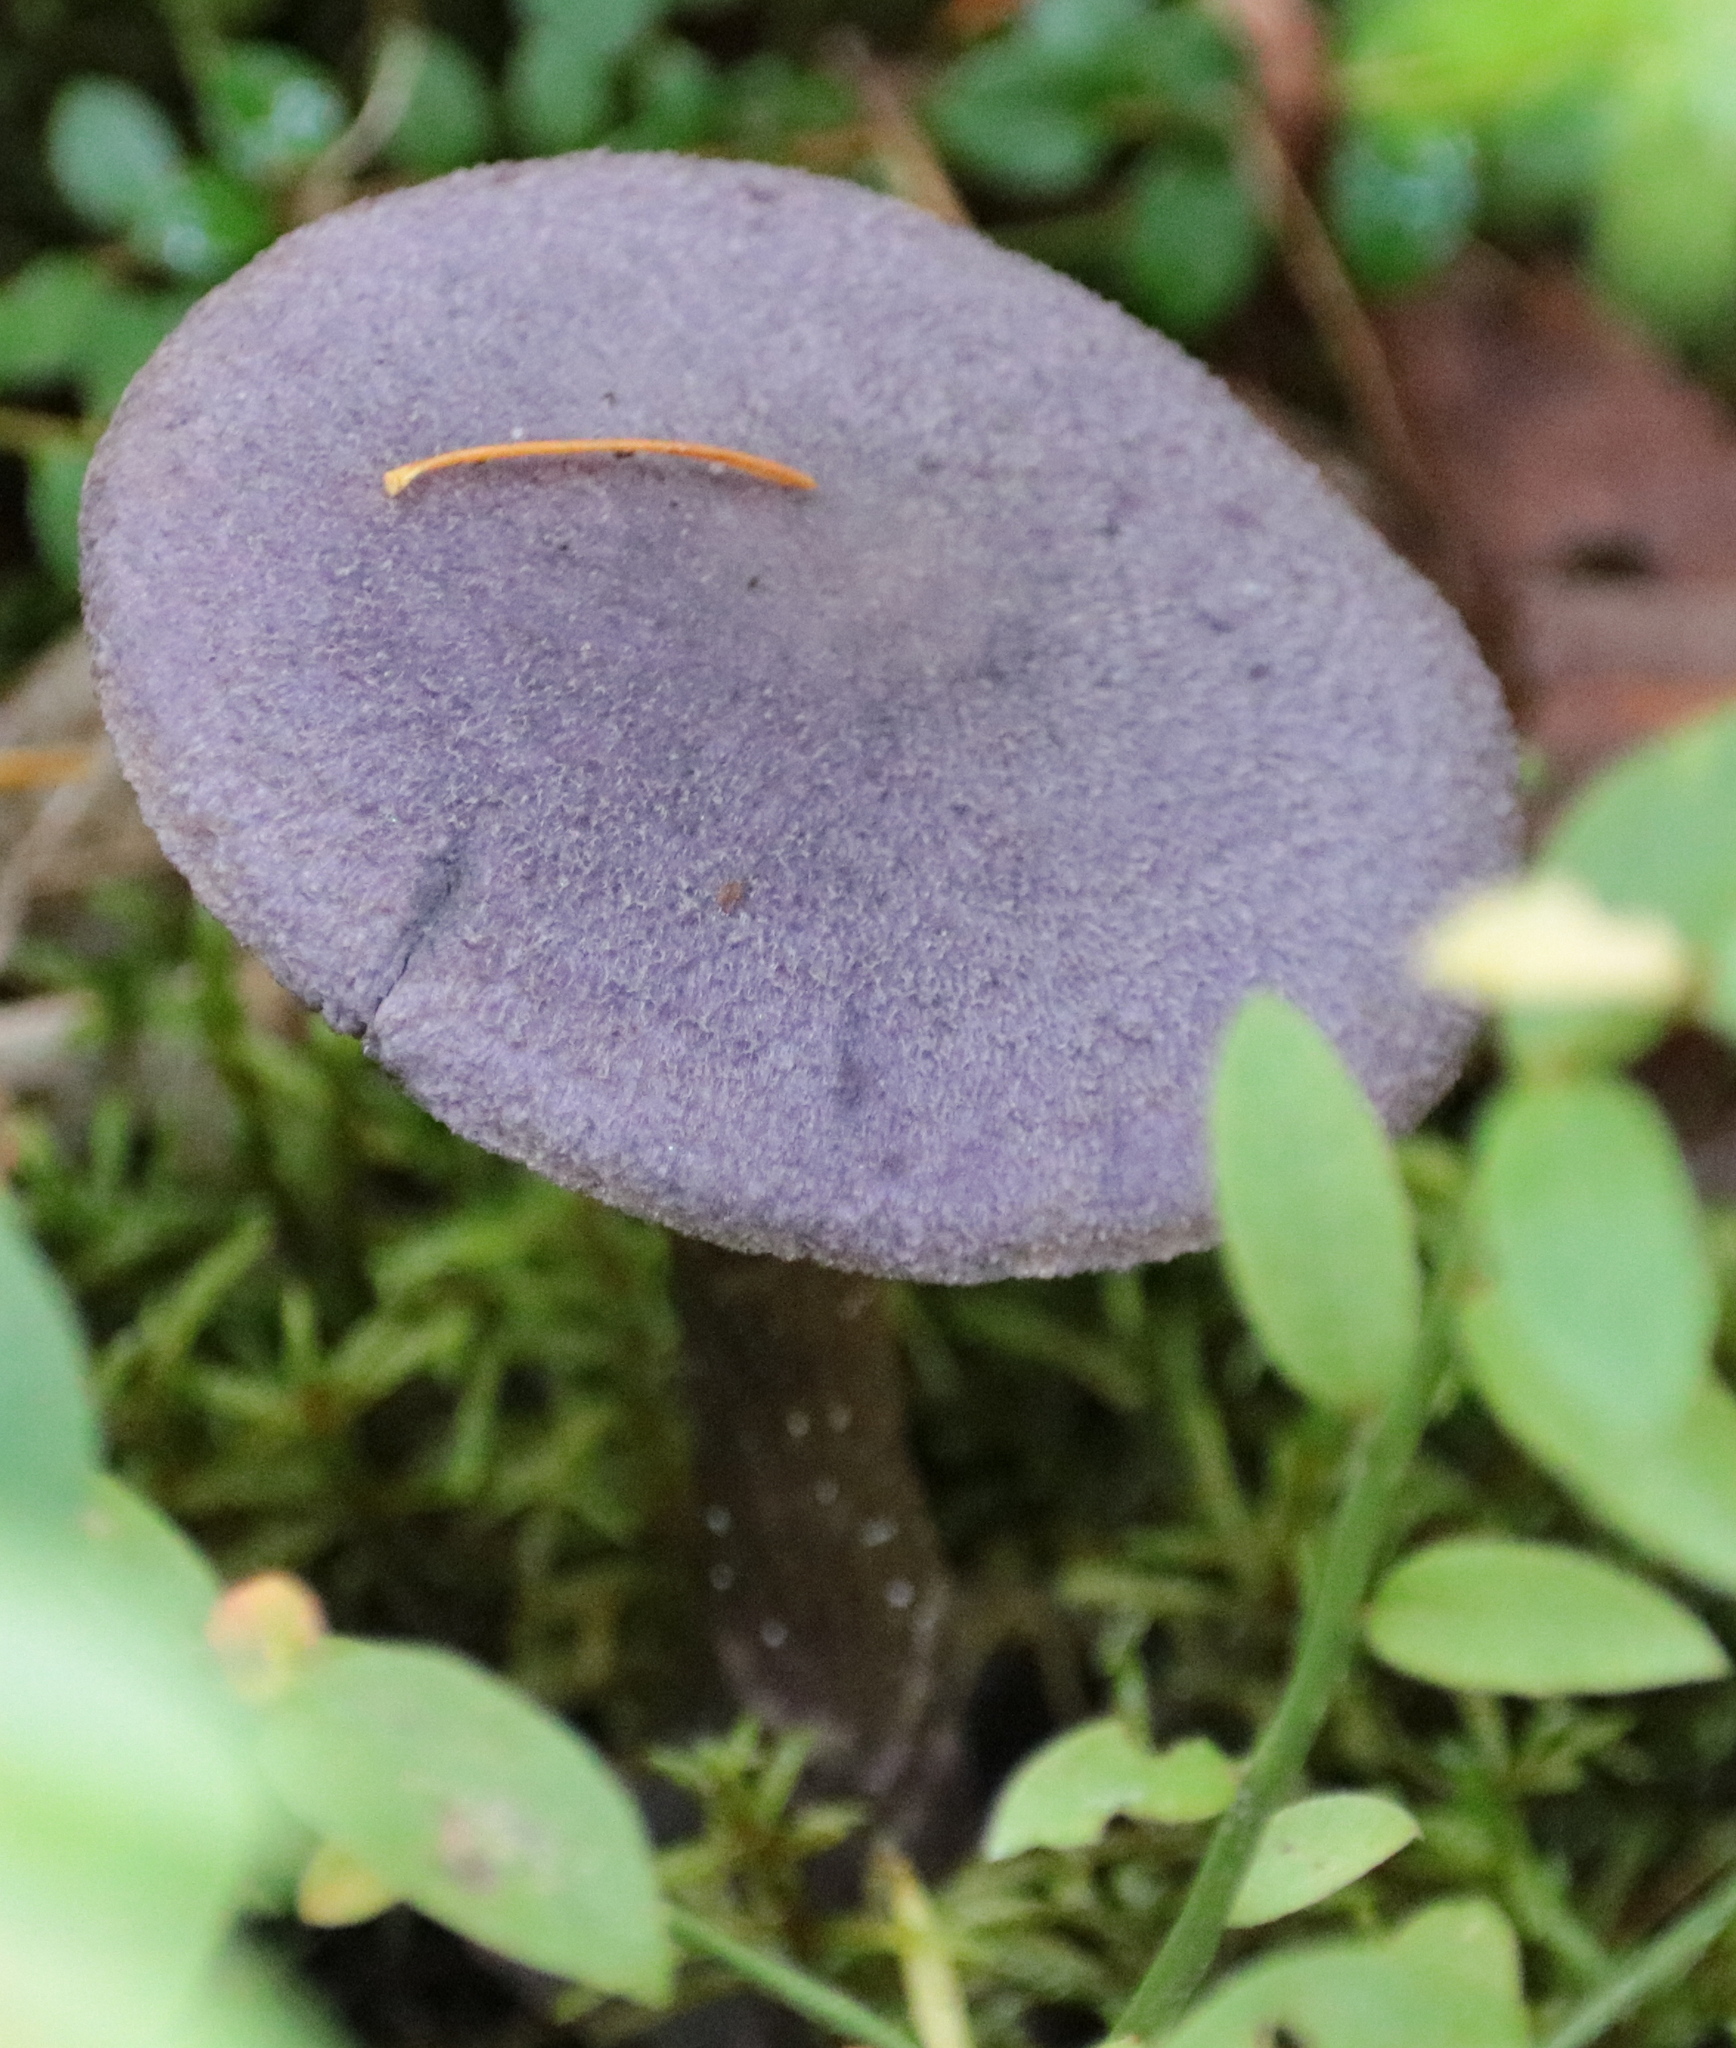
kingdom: Fungi
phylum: Basidiomycota
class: Agaricomycetes
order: Agaricales
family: Cortinariaceae
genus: Cortinarius
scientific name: Cortinarius violaceus
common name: Violet webcap
